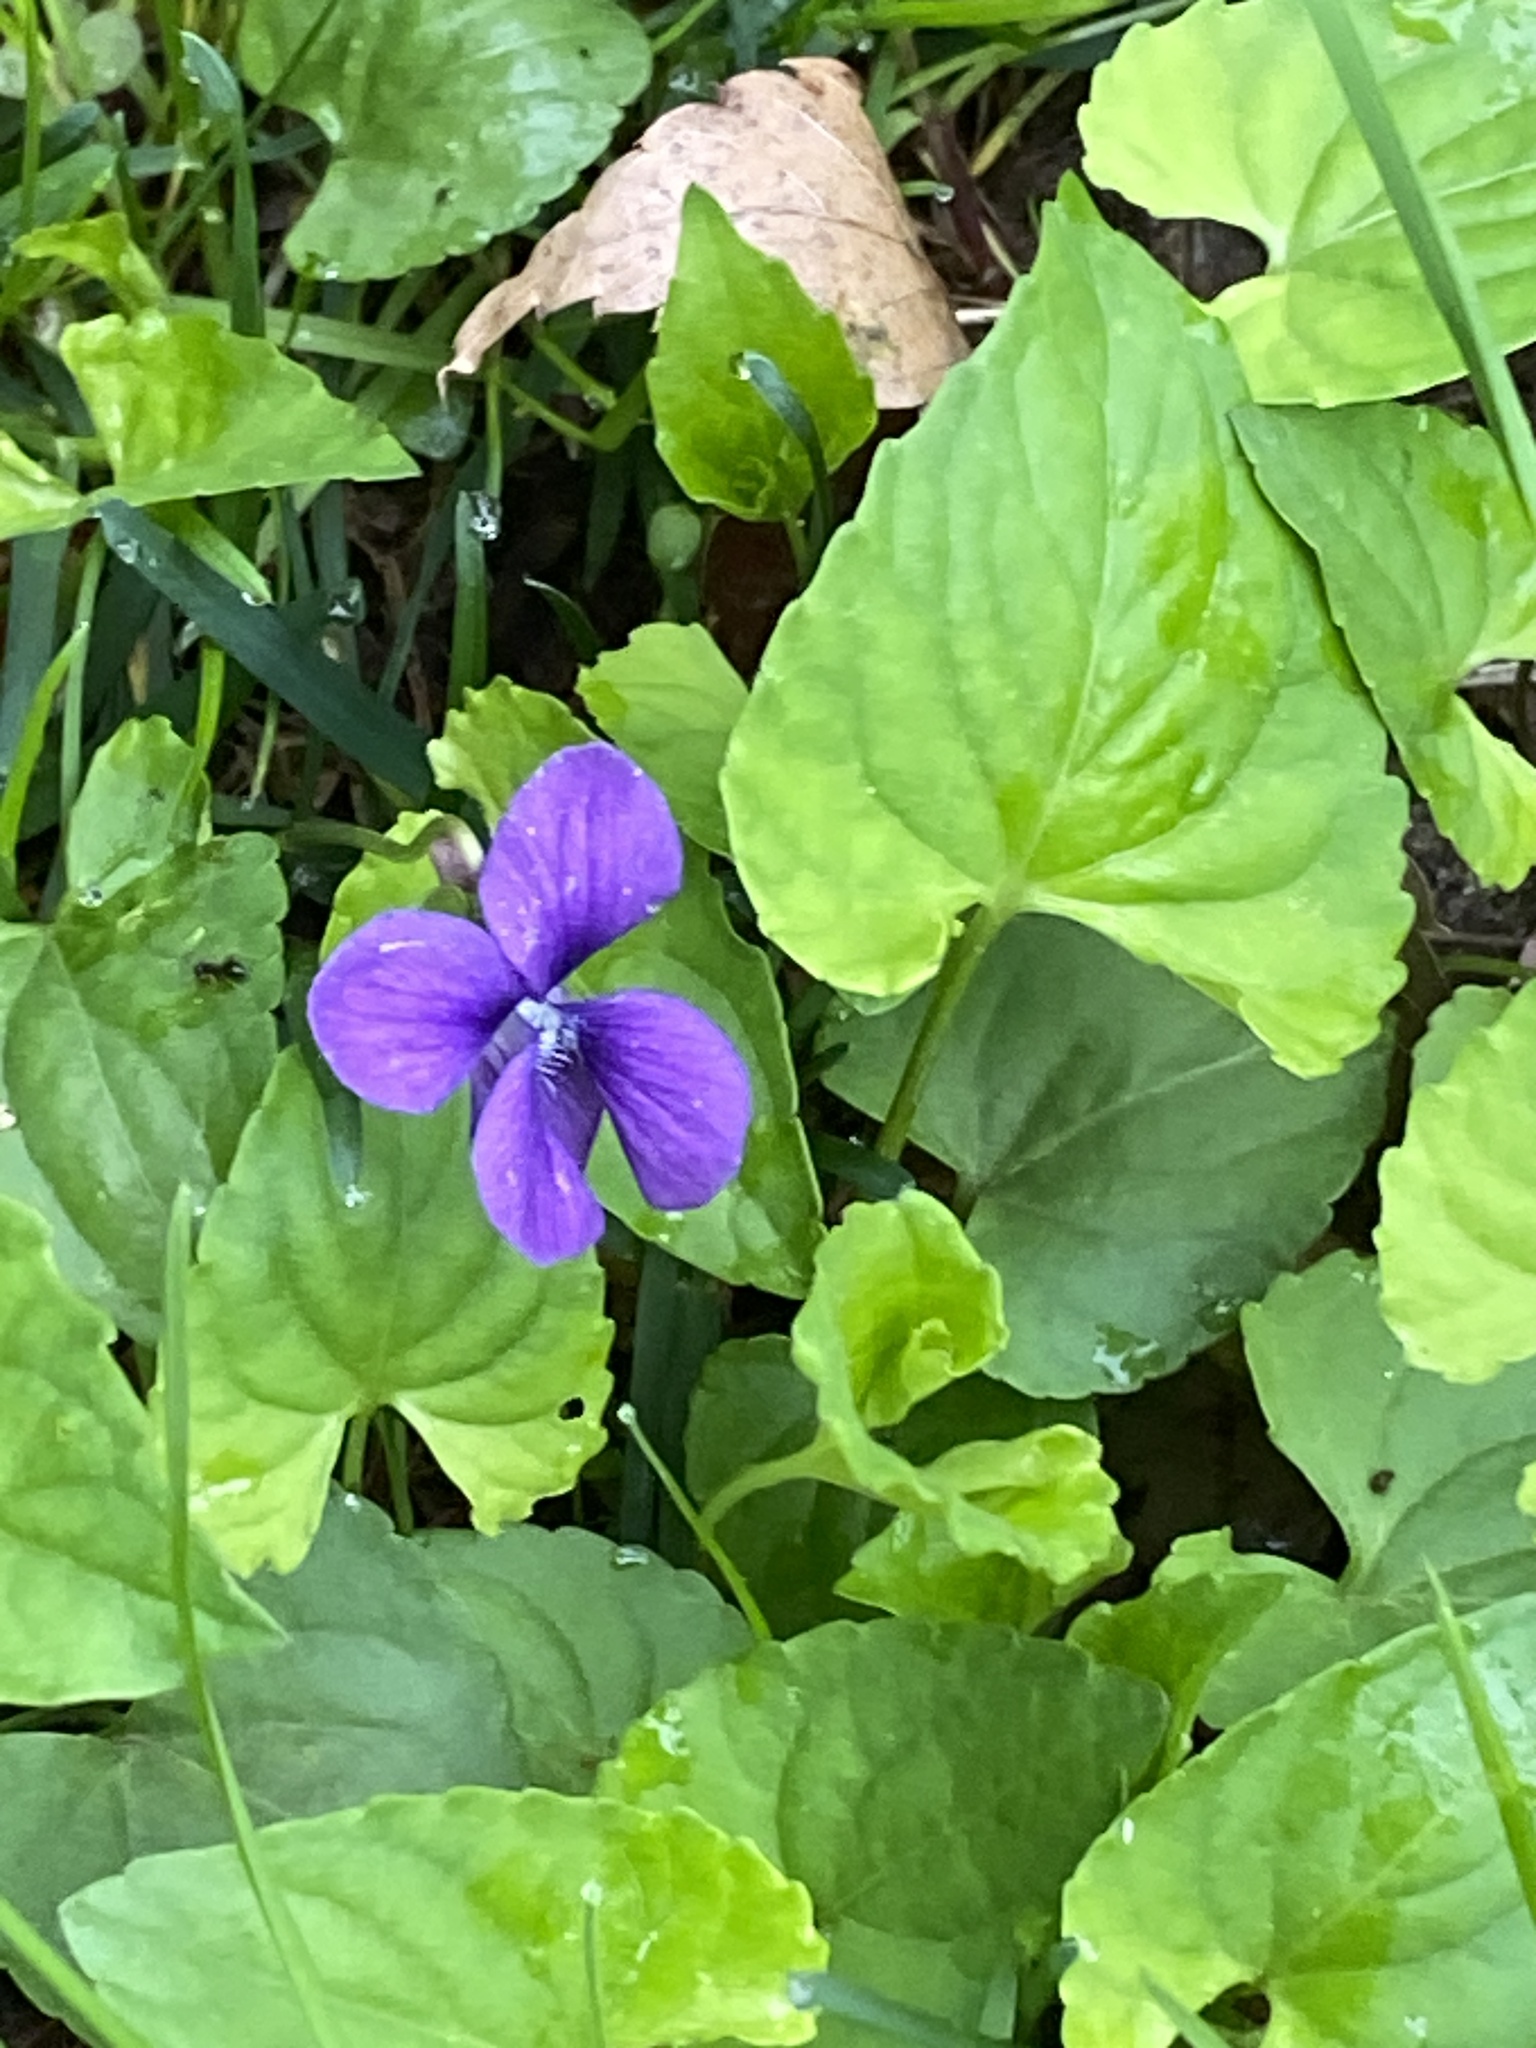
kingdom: Plantae
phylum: Tracheophyta
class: Magnoliopsida
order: Malpighiales
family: Violaceae
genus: Viola
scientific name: Viola sororia
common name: Dooryard violet
